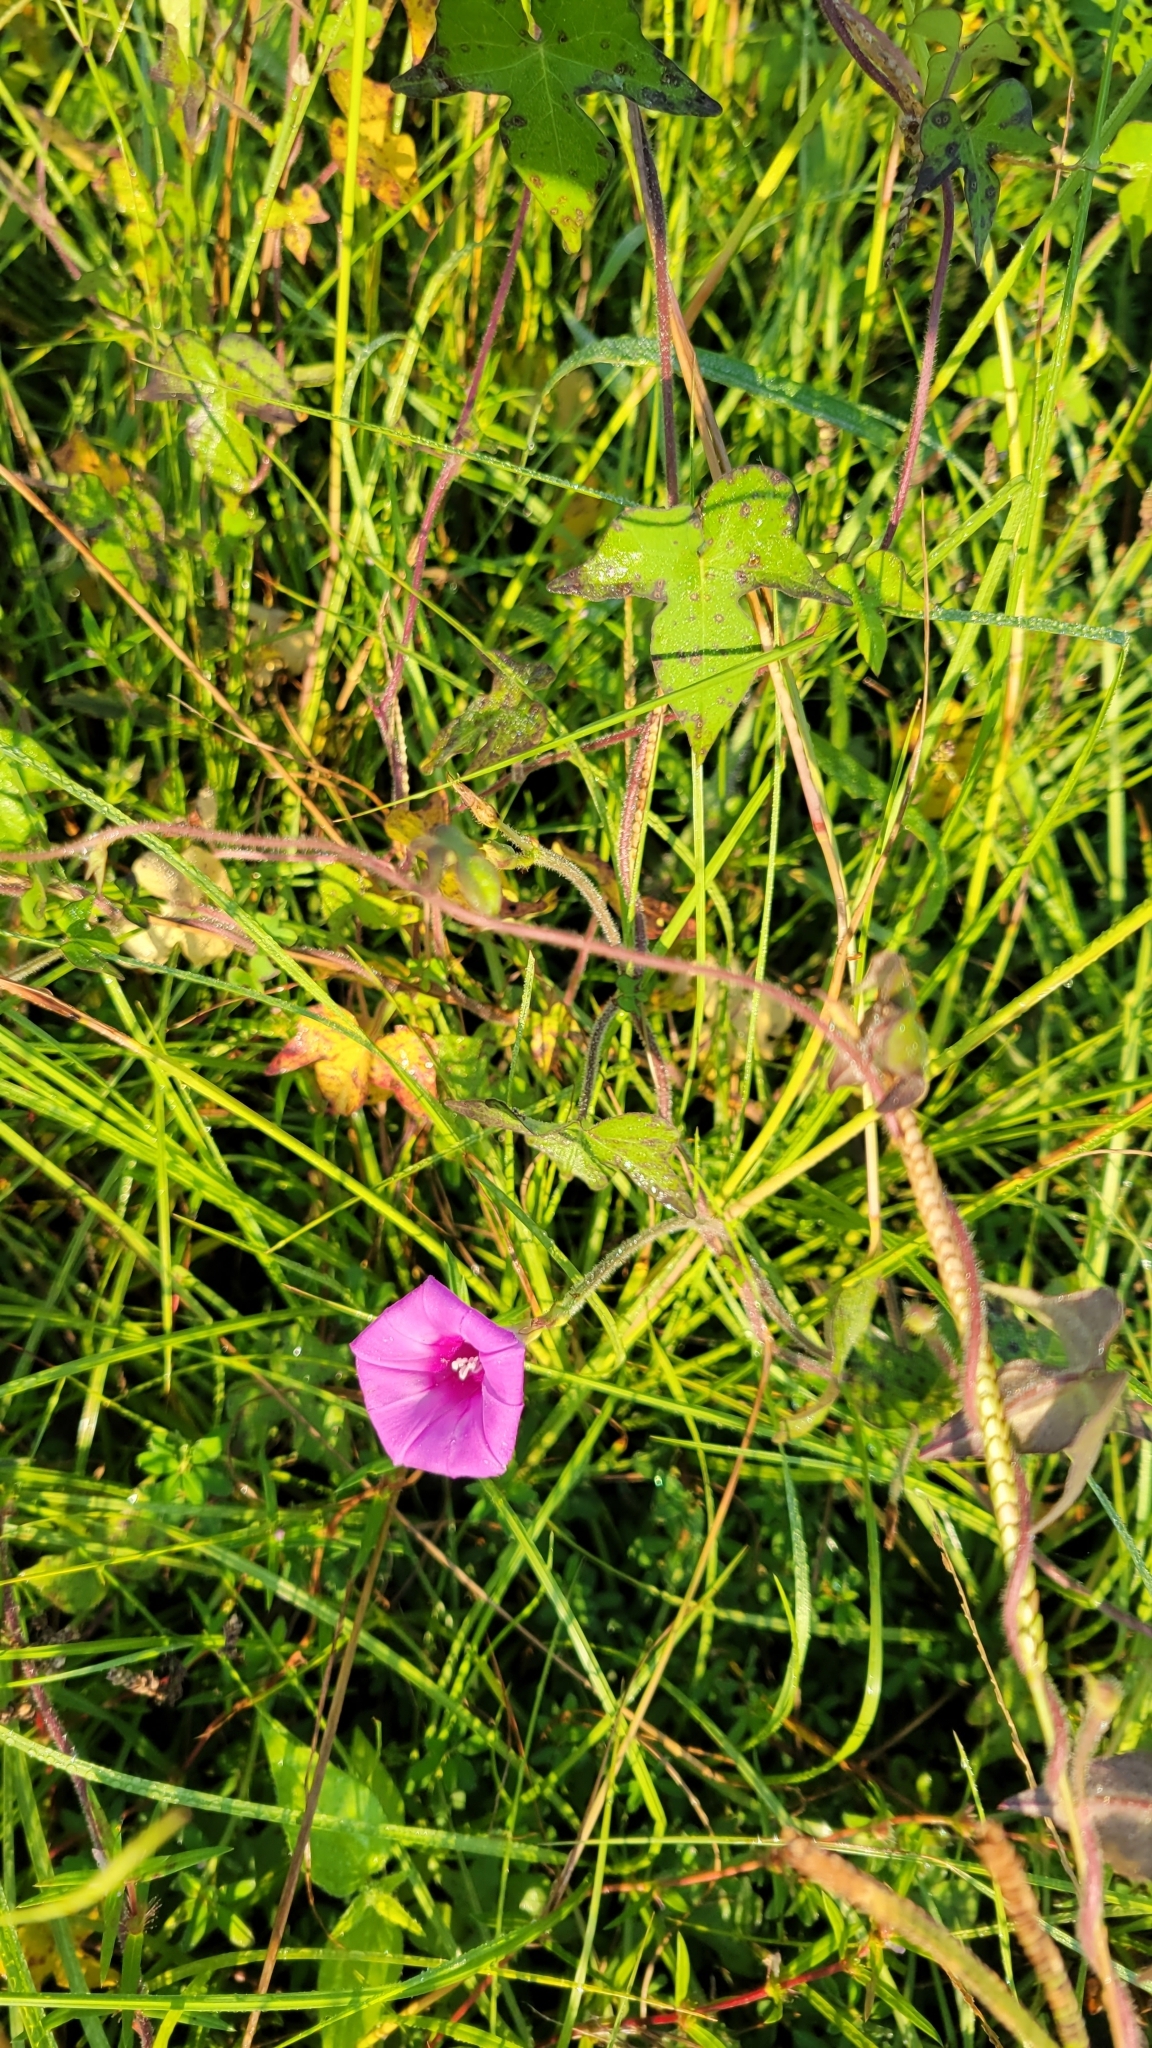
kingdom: Plantae
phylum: Tracheophyta
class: Magnoliopsida
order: Solanales
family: Convolvulaceae
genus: Ipomoea
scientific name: Ipomoea triloba
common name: Little-bell
